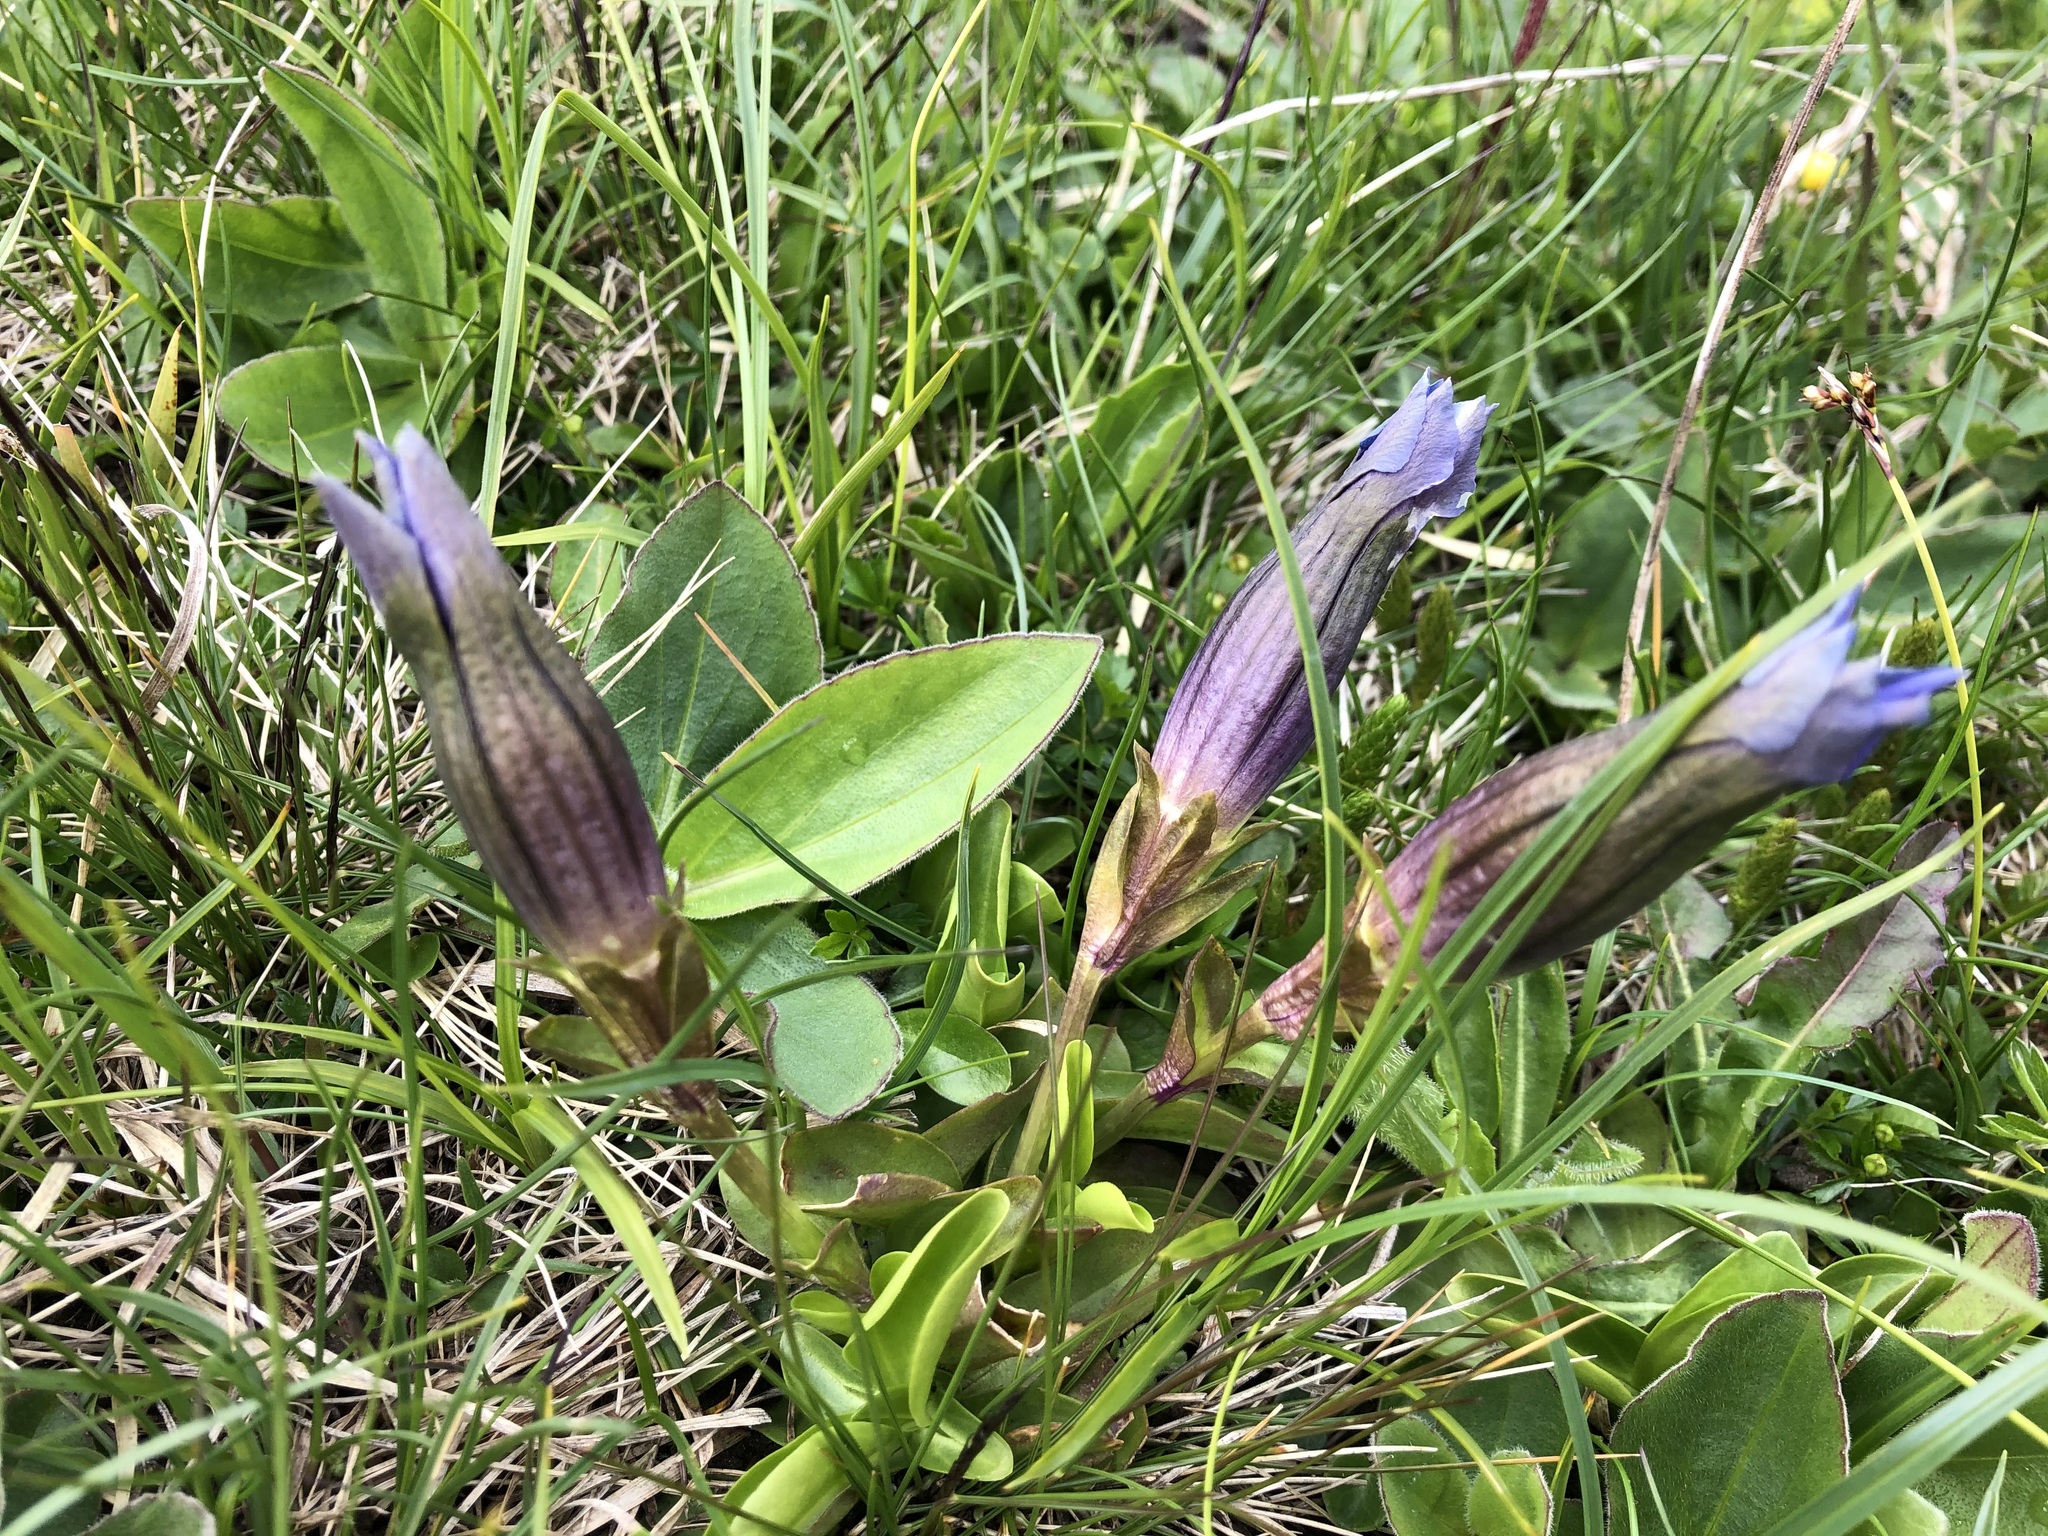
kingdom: Plantae
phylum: Tracheophyta
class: Magnoliopsida
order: Gentianales
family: Gentianaceae
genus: Gentiana
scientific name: Gentiana acaulis
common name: Trumpet gentian
